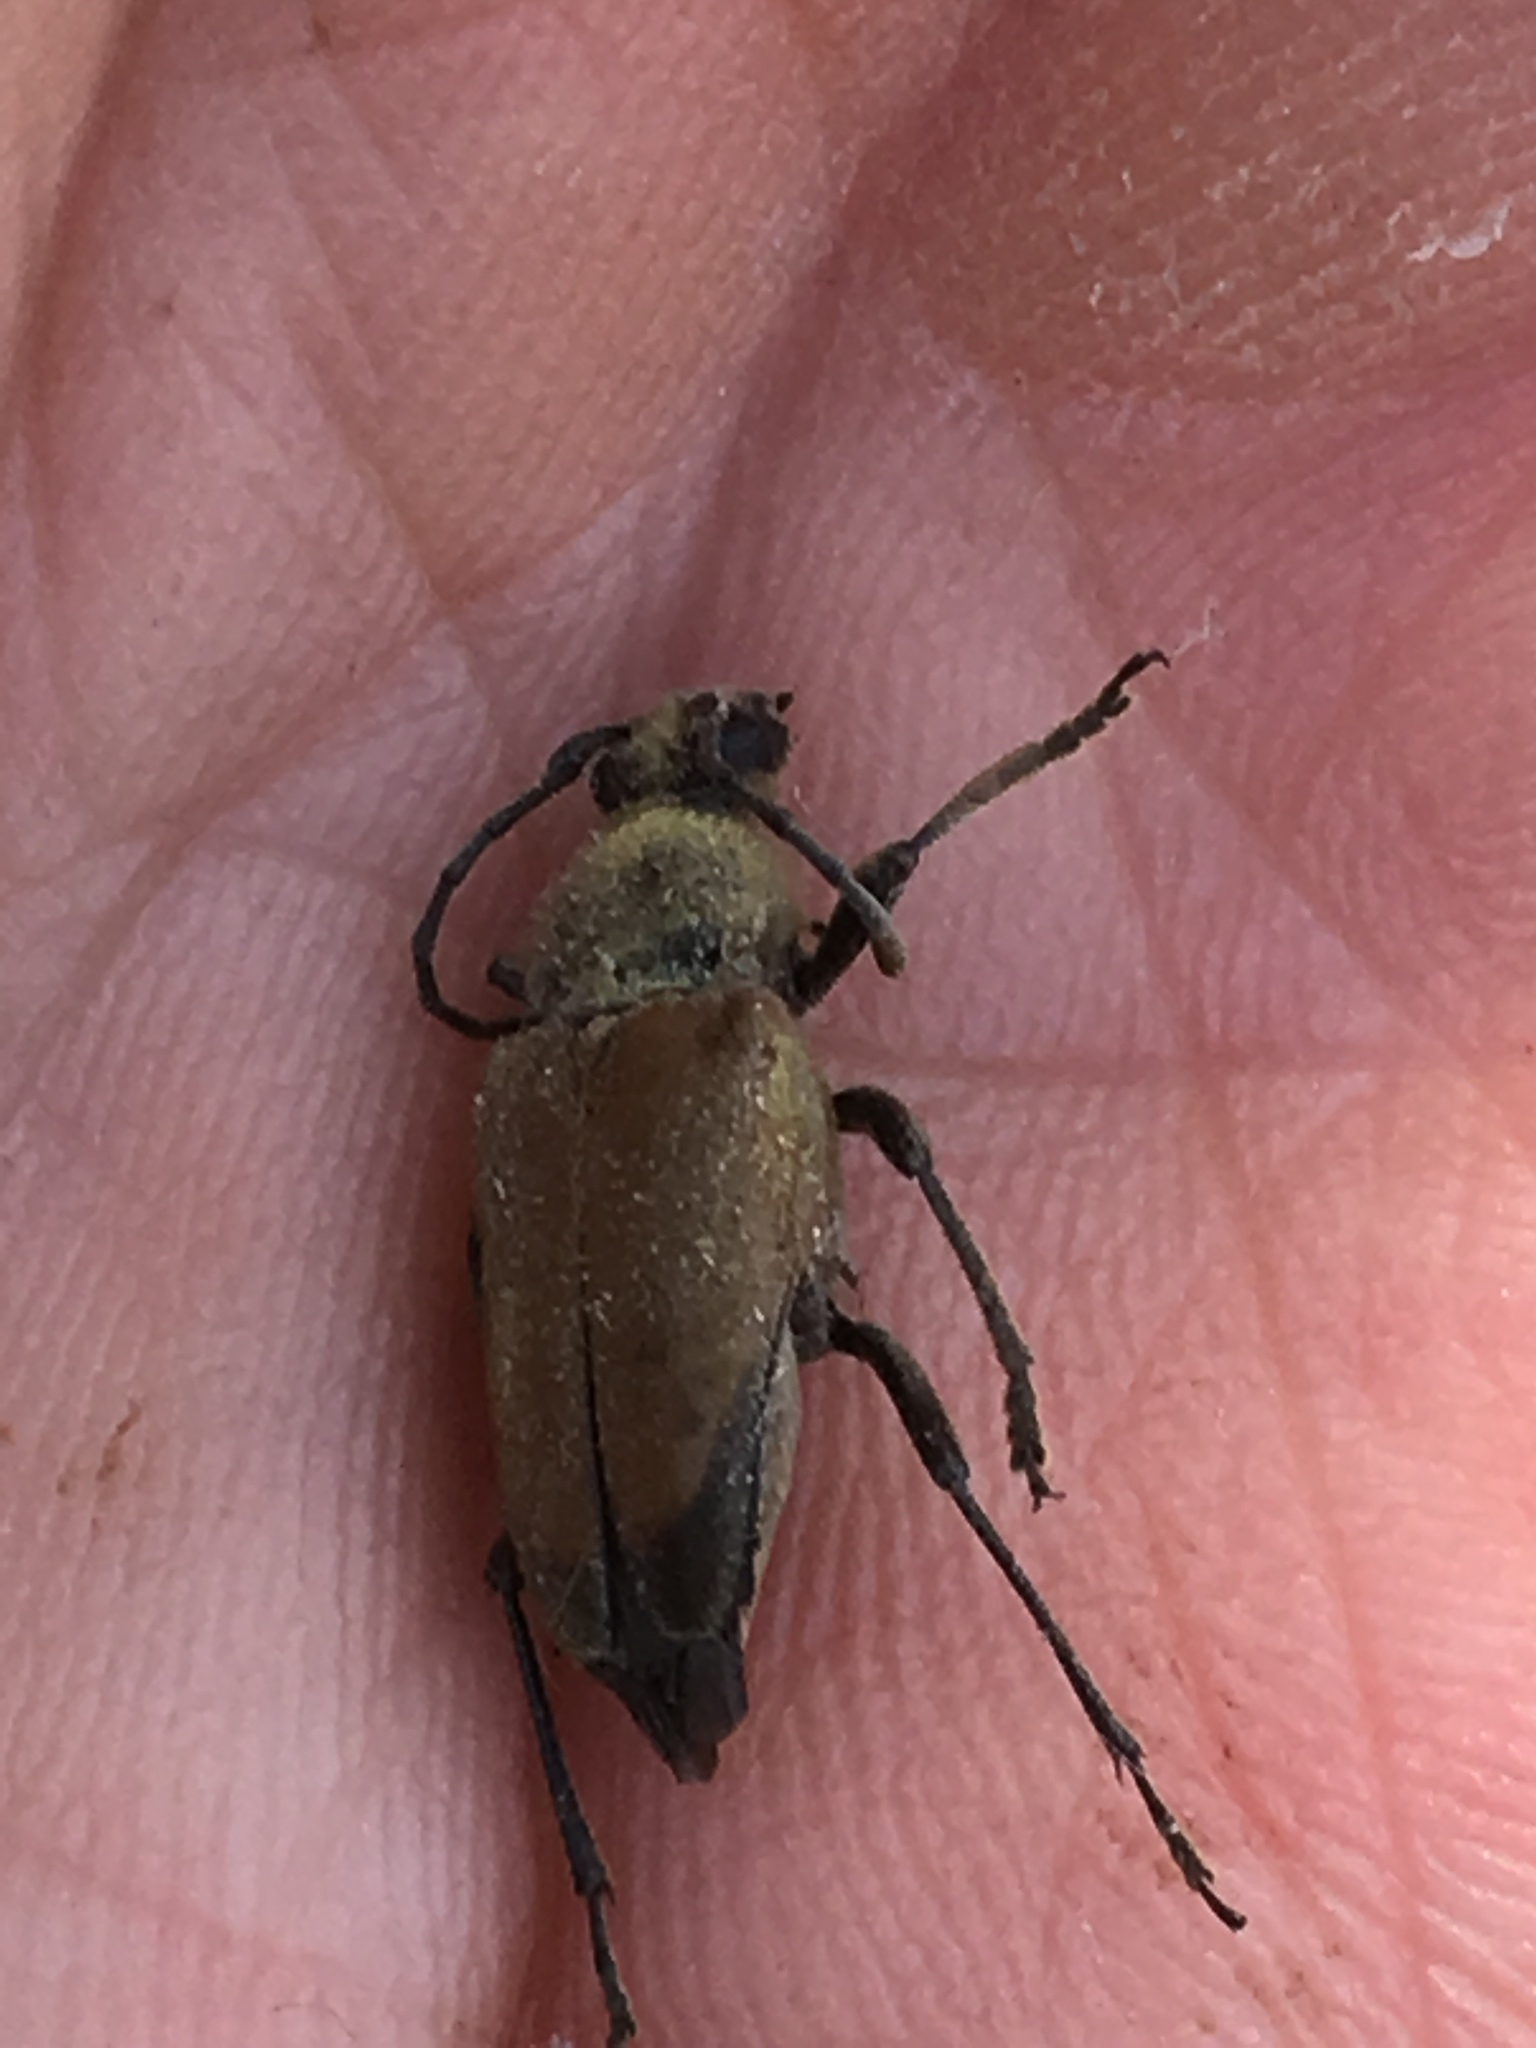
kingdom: Animalia
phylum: Arthropoda
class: Insecta
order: Coleoptera
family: Cerambycidae
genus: Trigonarthris
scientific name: Trigonarthris
